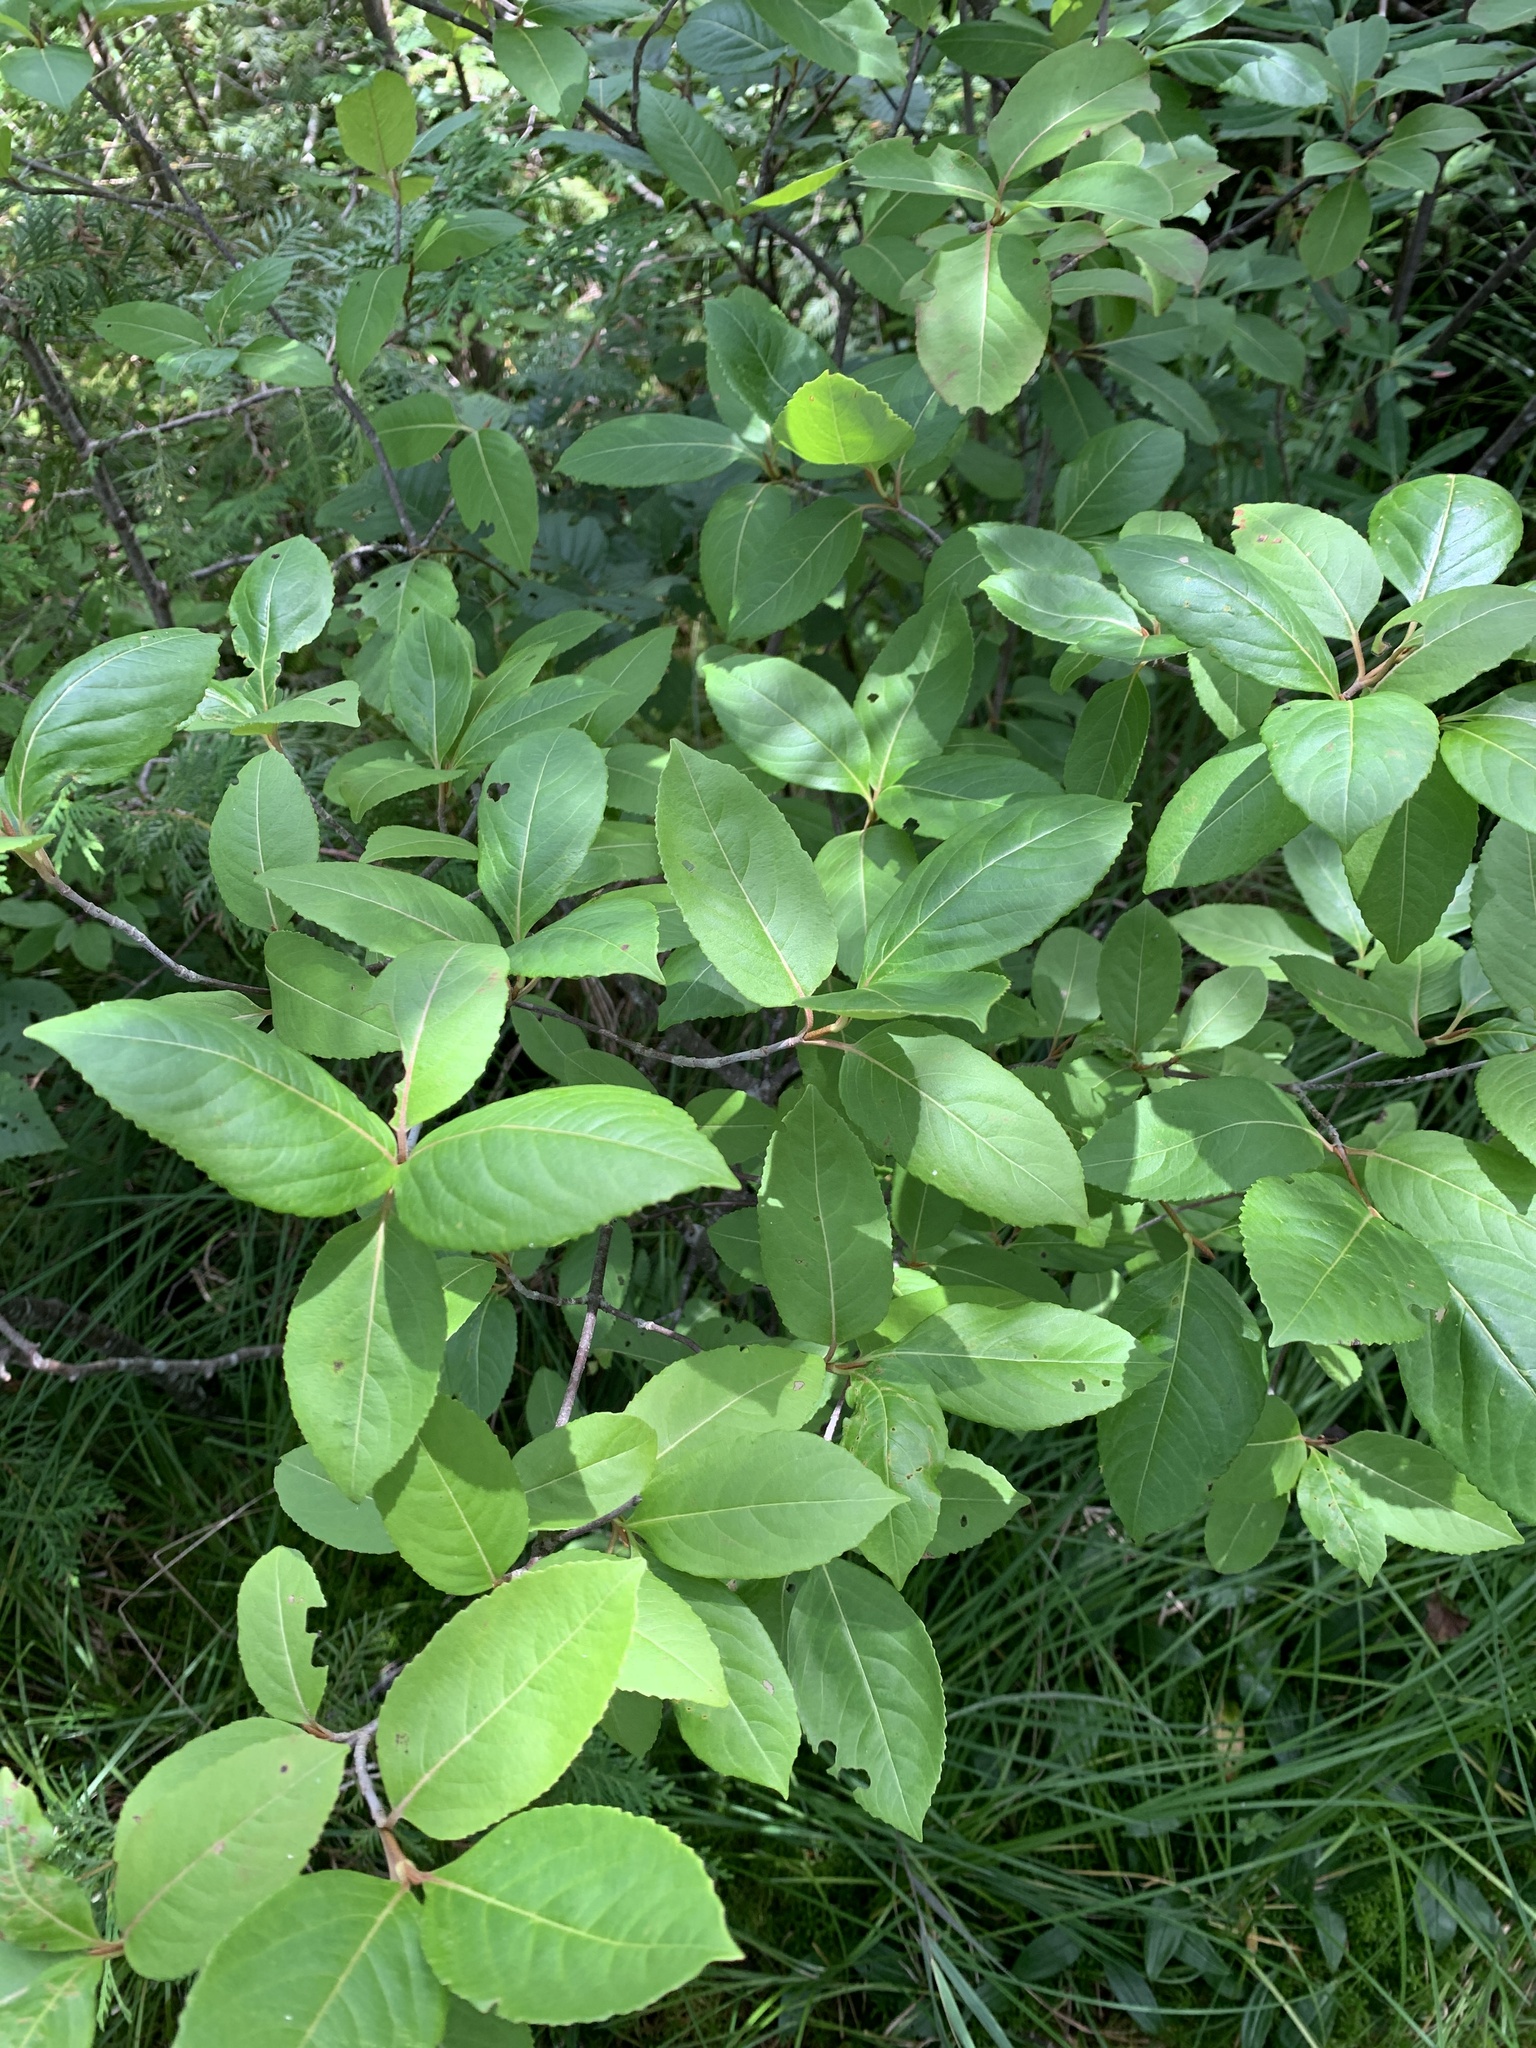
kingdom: Plantae
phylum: Tracheophyta
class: Magnoliopsida
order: Dipsacales
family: Viburnaceae
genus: Viburnum
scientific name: Viburnum cassinoides
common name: Swamp haw
